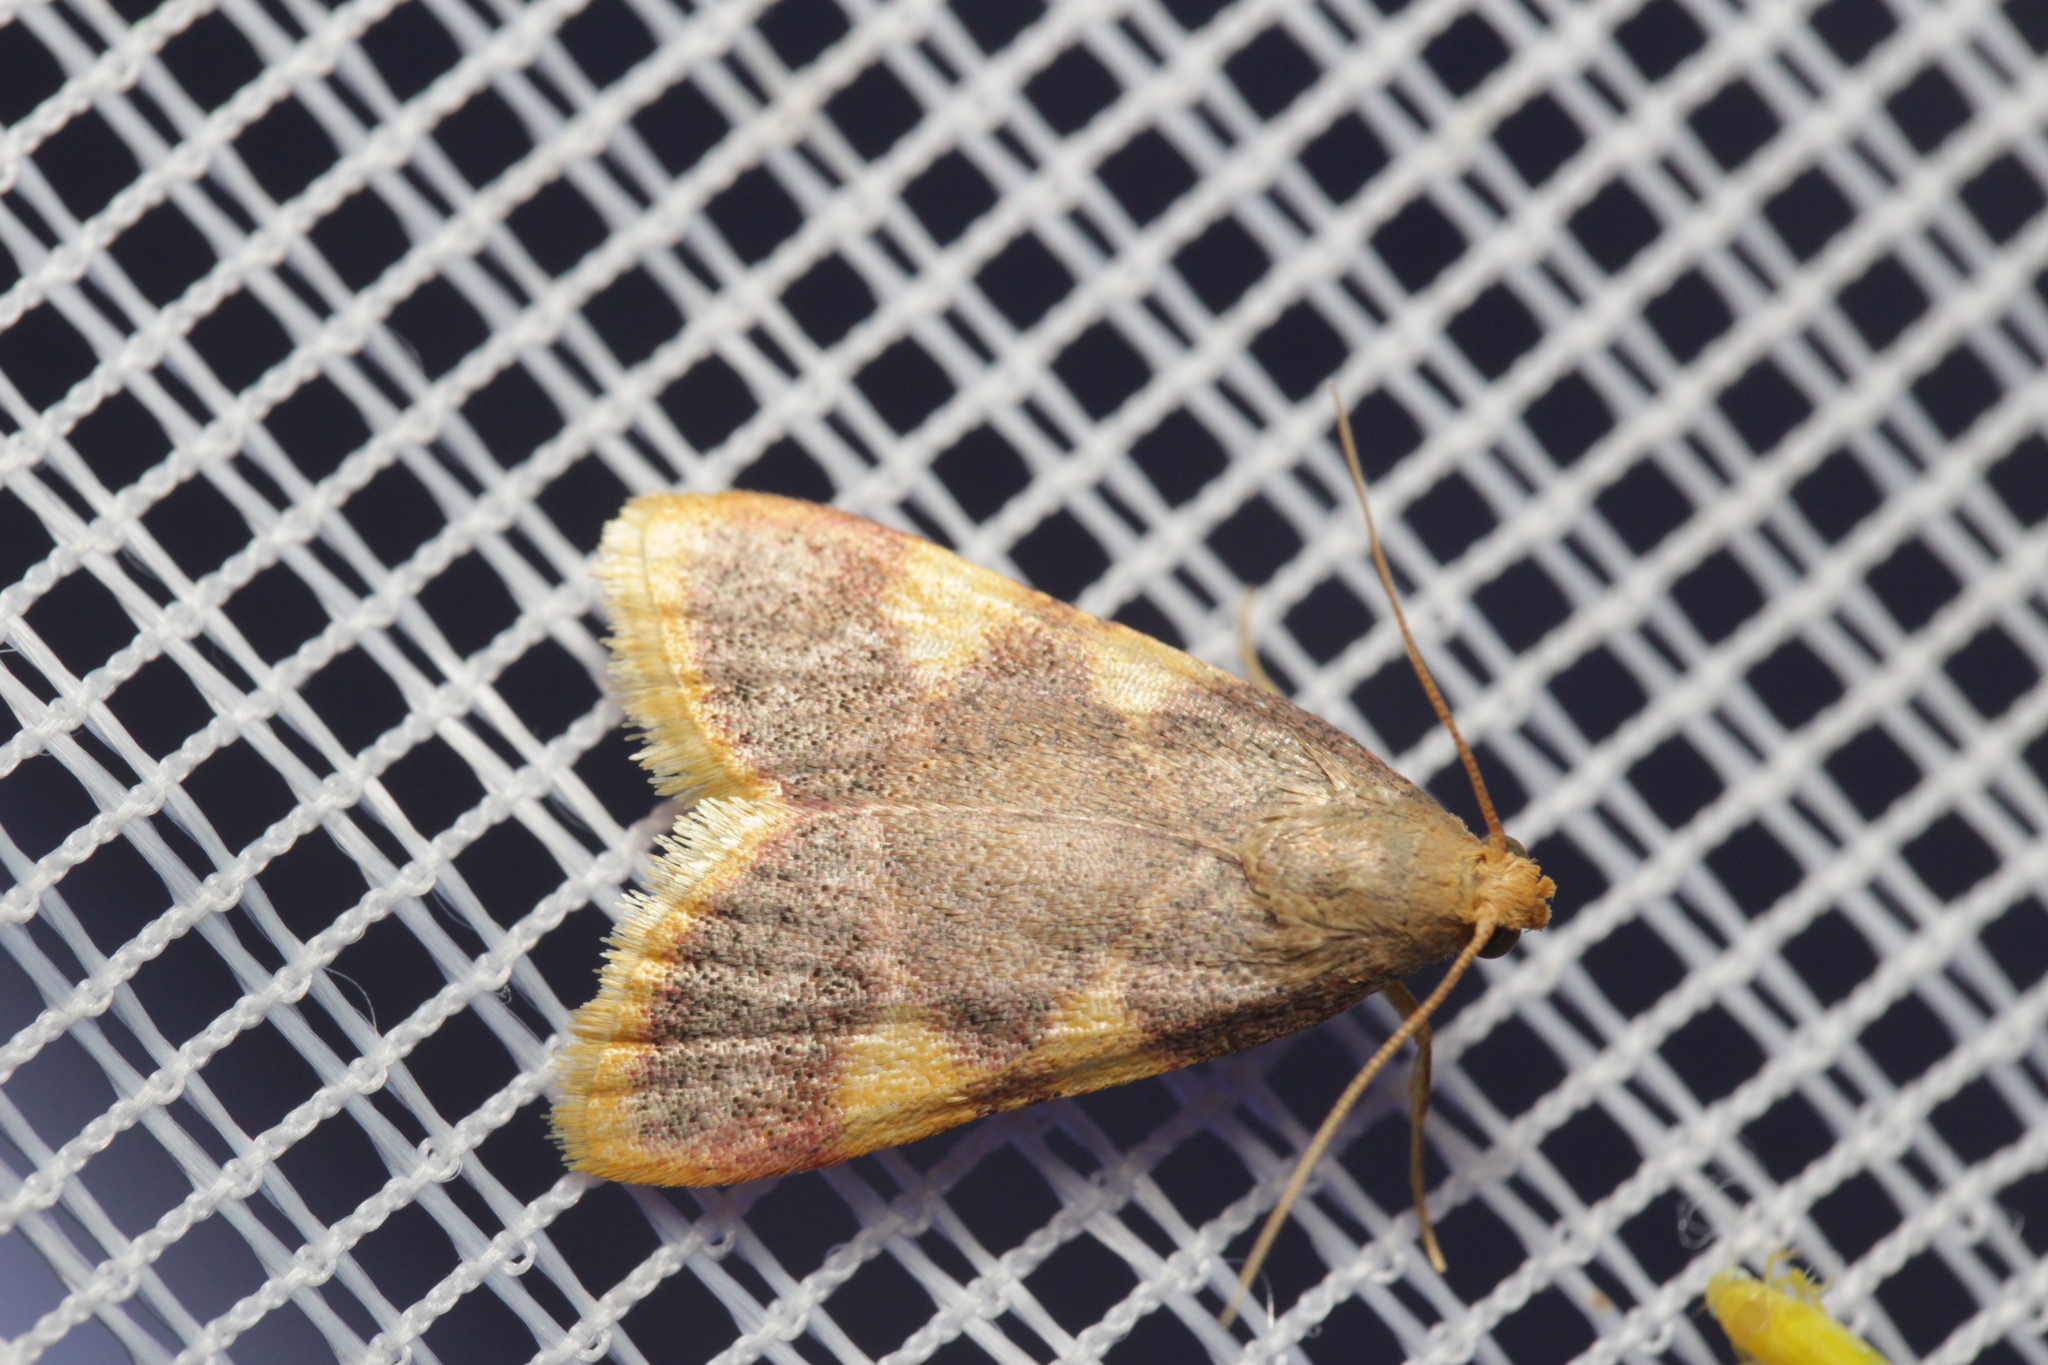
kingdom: Animalia
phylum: Arthropoda
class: Insecta
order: Lepidoptera
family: Pyralidae
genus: Hypsopygia
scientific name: Hypsopygia costalis
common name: Gold triangle
